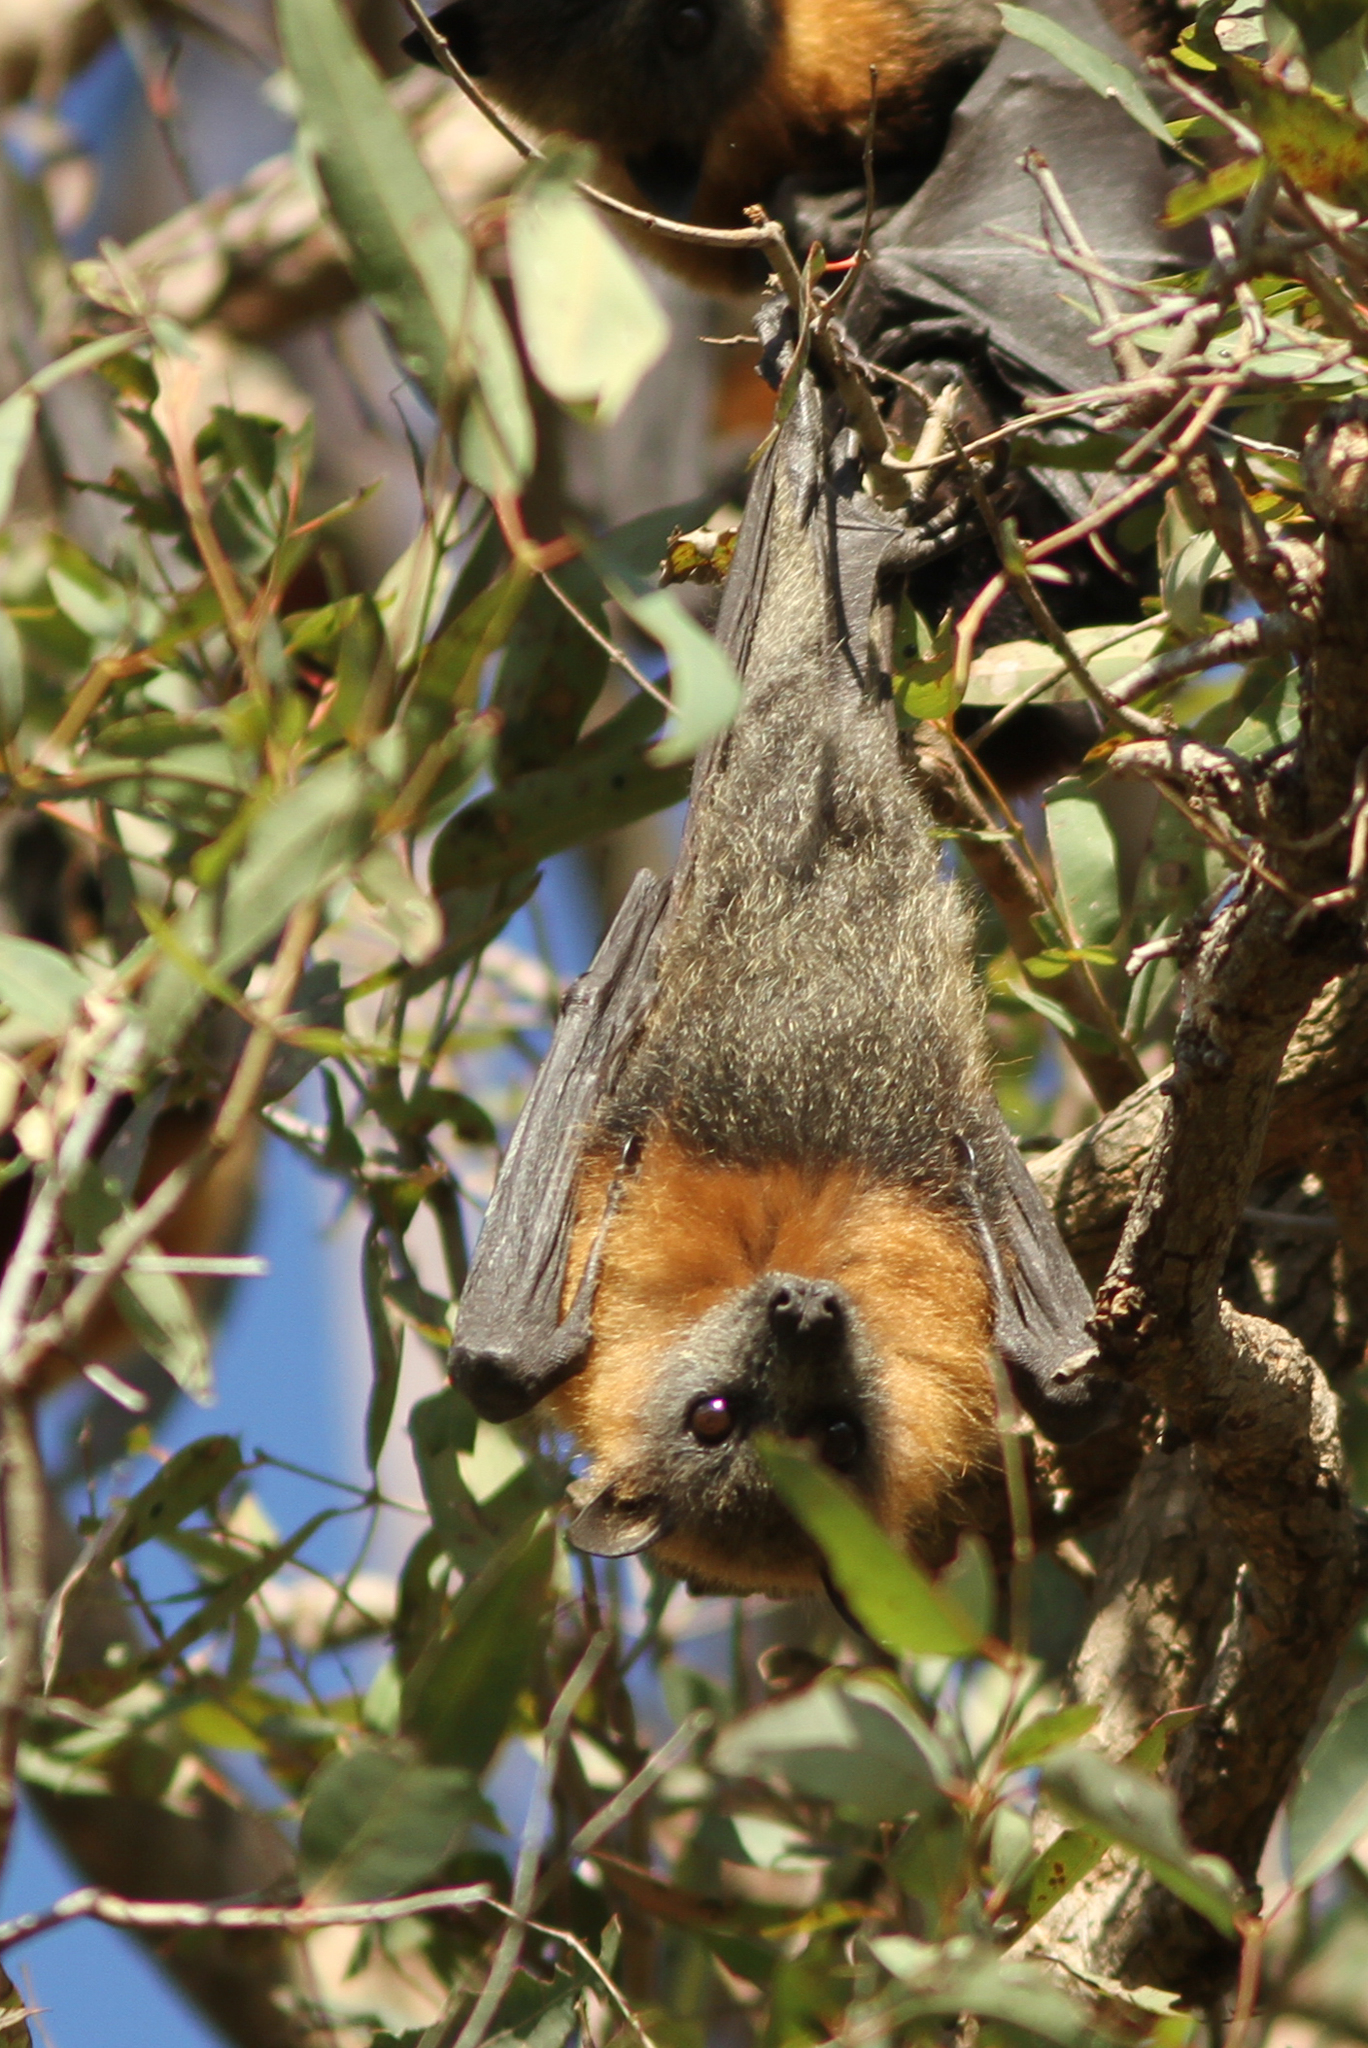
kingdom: Animalia
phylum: Chordata
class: Mammalia
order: Chiroptera
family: Pteropodidae
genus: Pteropus
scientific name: Pteropus poliocephalus
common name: Gray-headed flying fox
